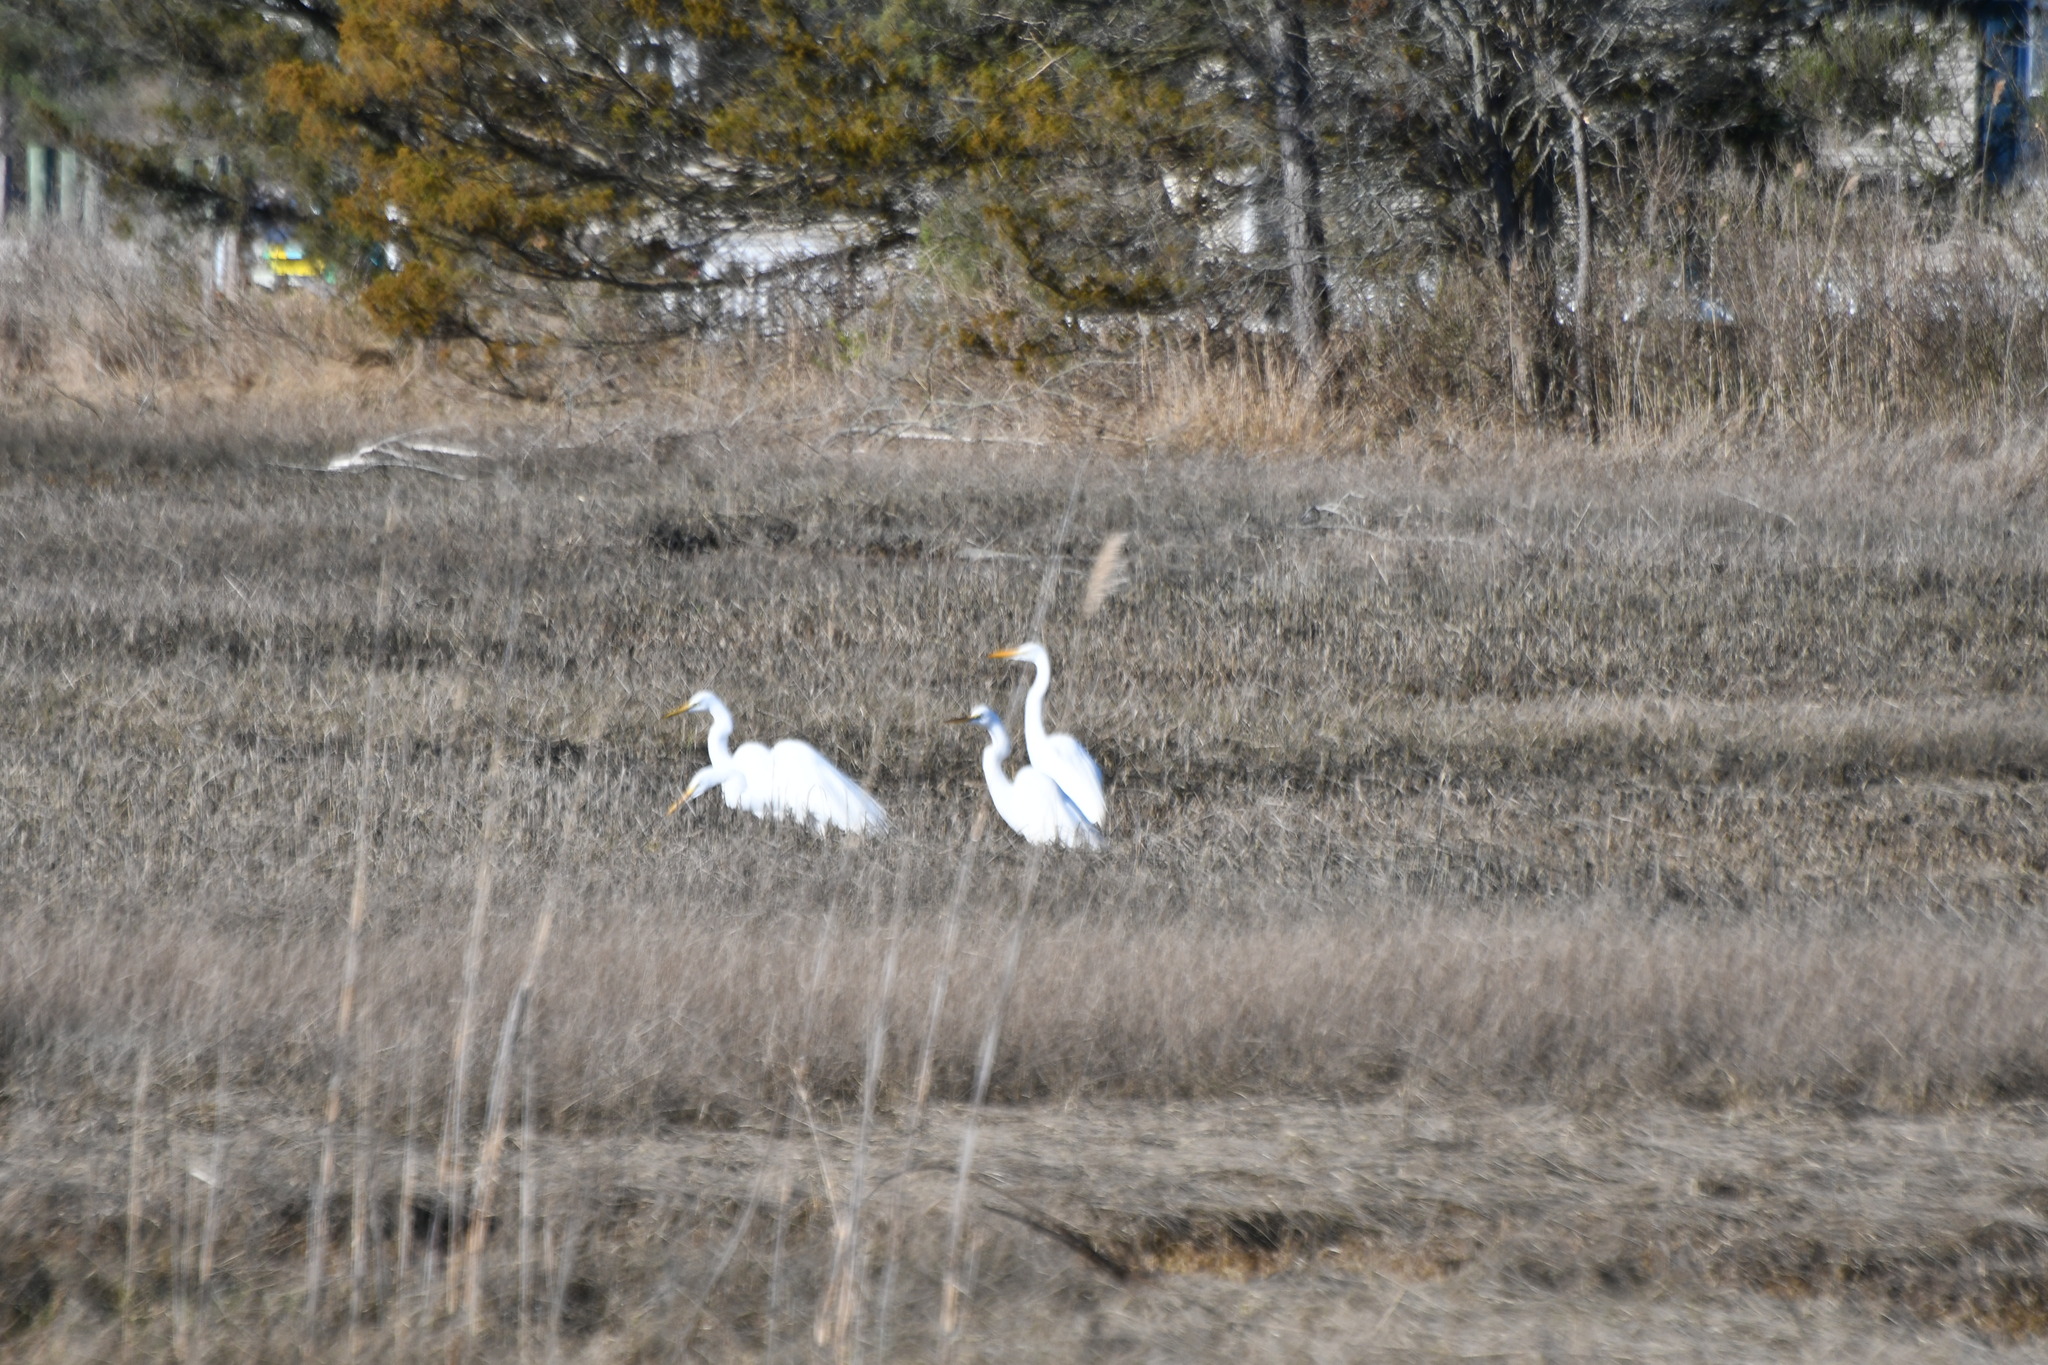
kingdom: Animalia
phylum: Chordata
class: Aves
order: Pelecaniformes
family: Ardeidae
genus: Ardea
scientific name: Ardea alba
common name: Great egret
